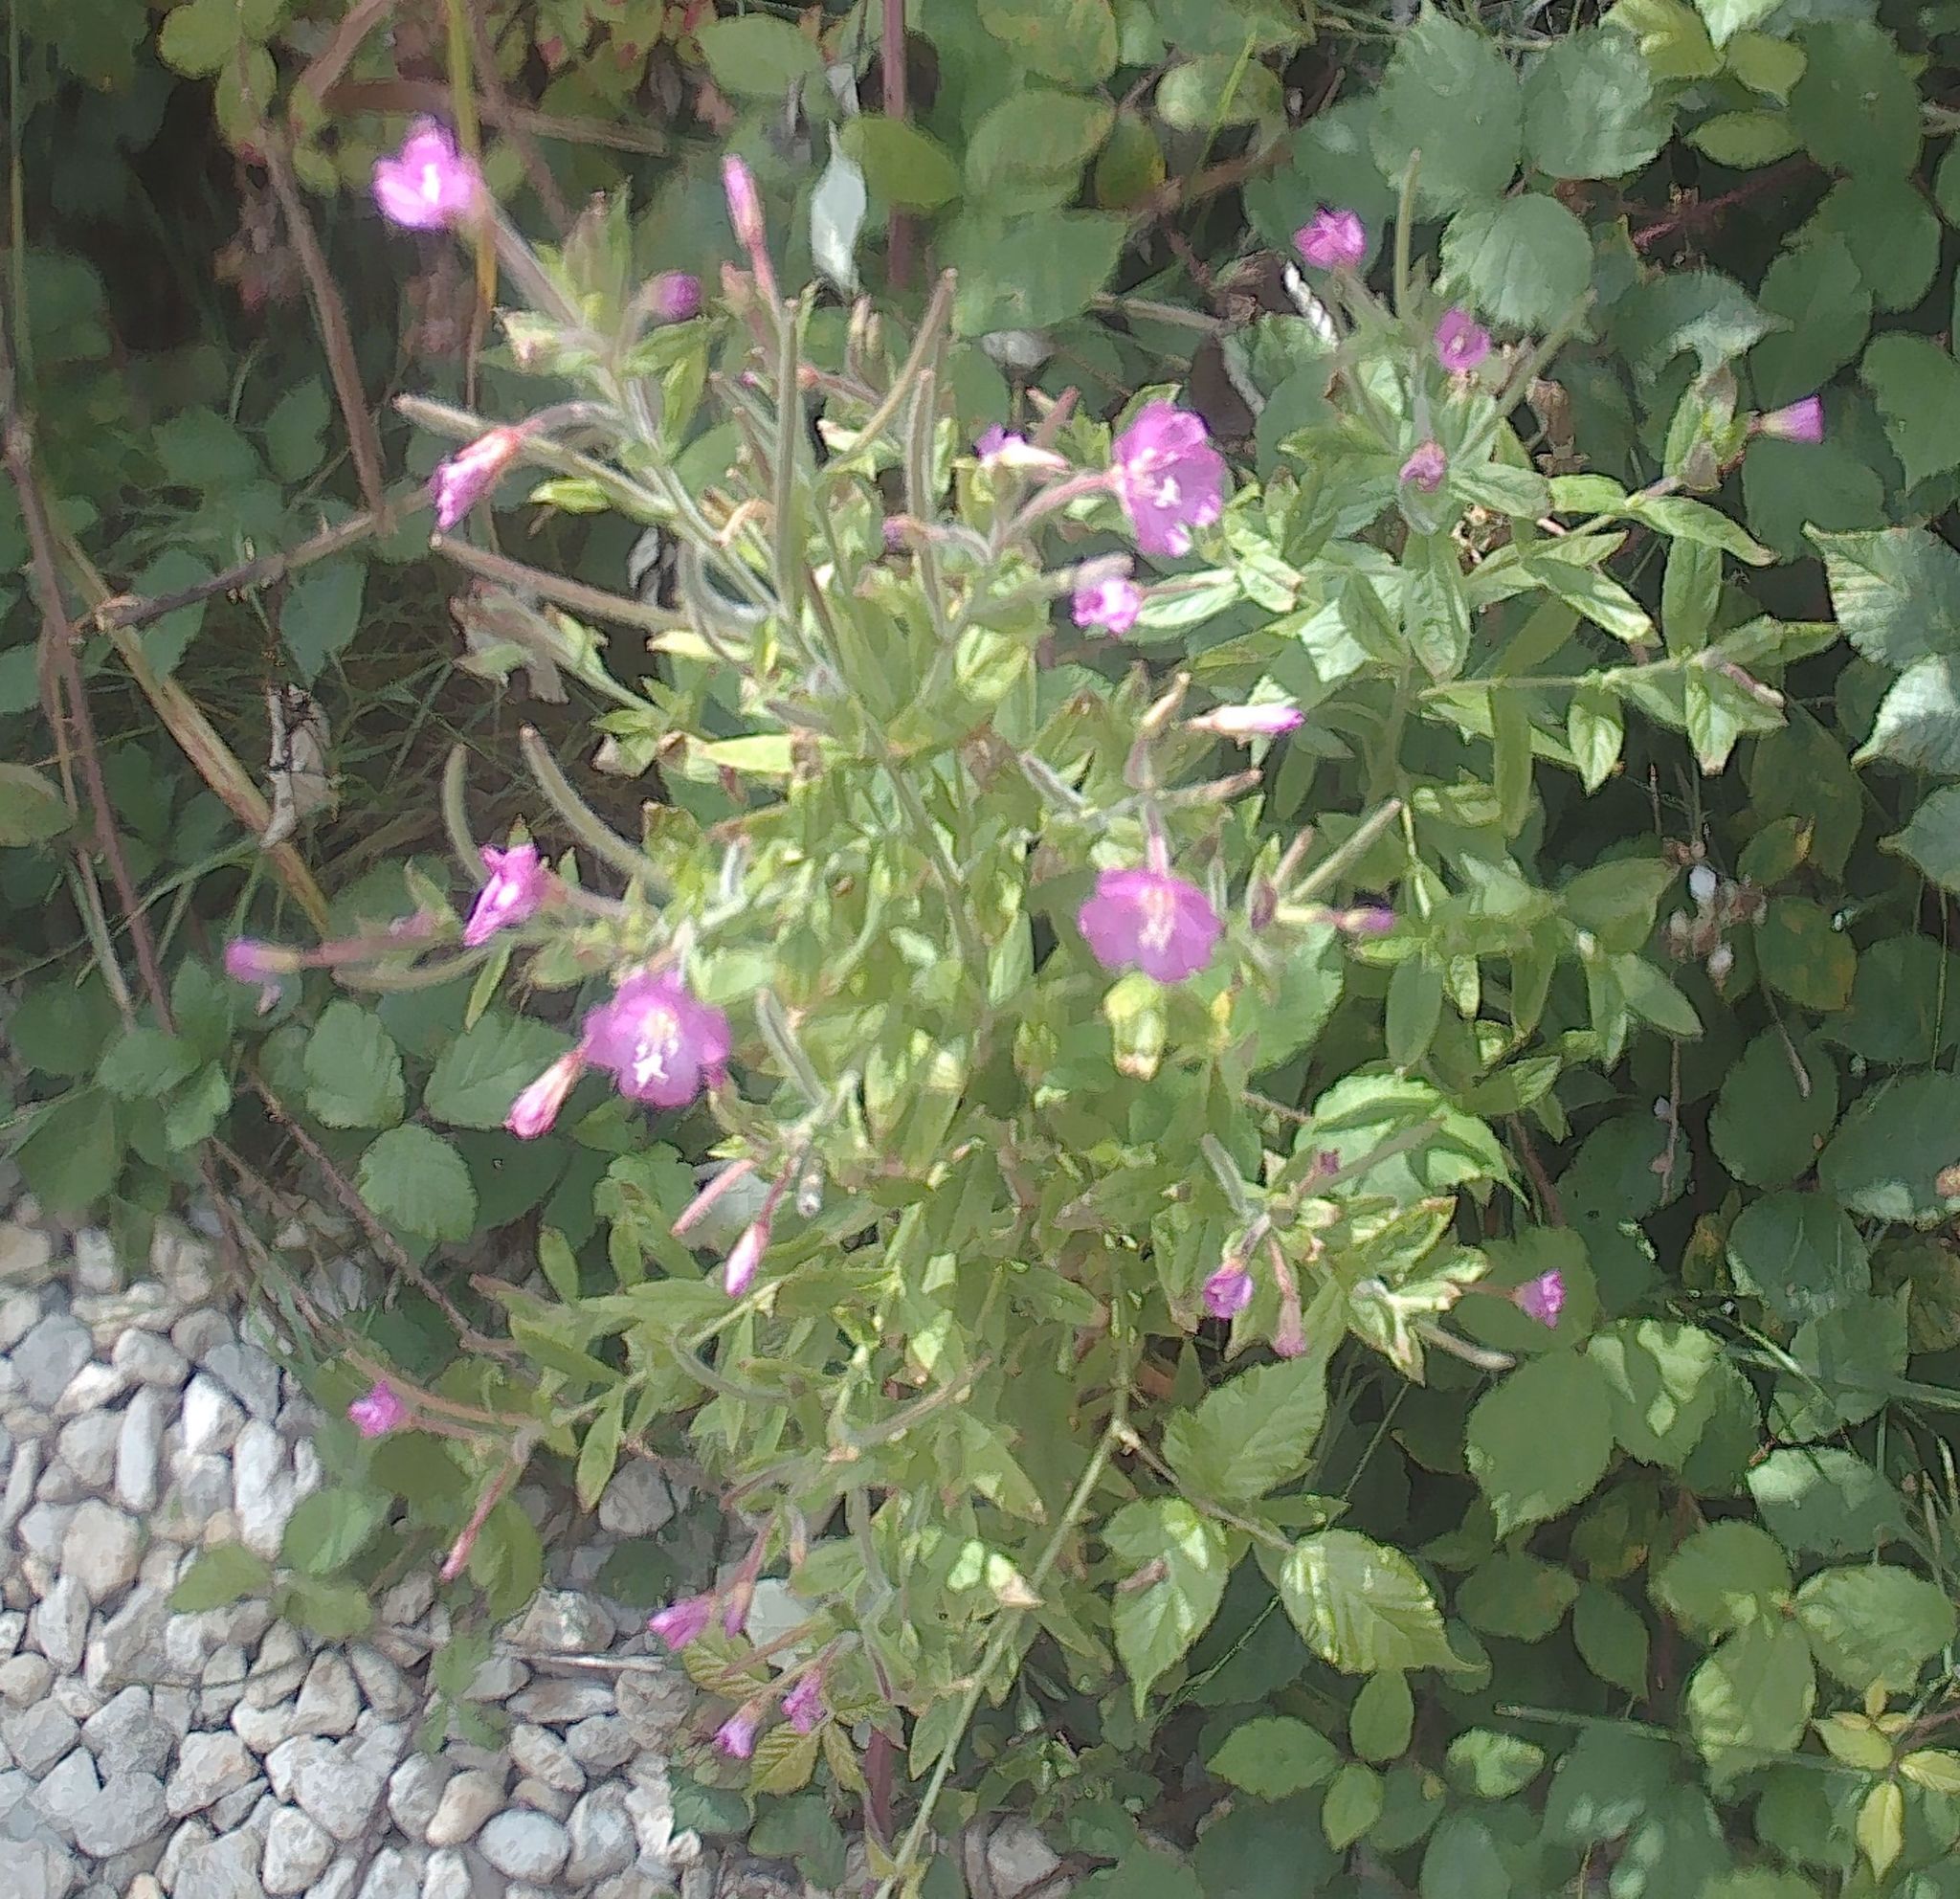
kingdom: Plantae
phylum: Tracheophyta
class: Magnoliopsida
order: Myrtales
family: Onagraceae
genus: Epilobium
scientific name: Epilobium hirsutum
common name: Great willowherb
